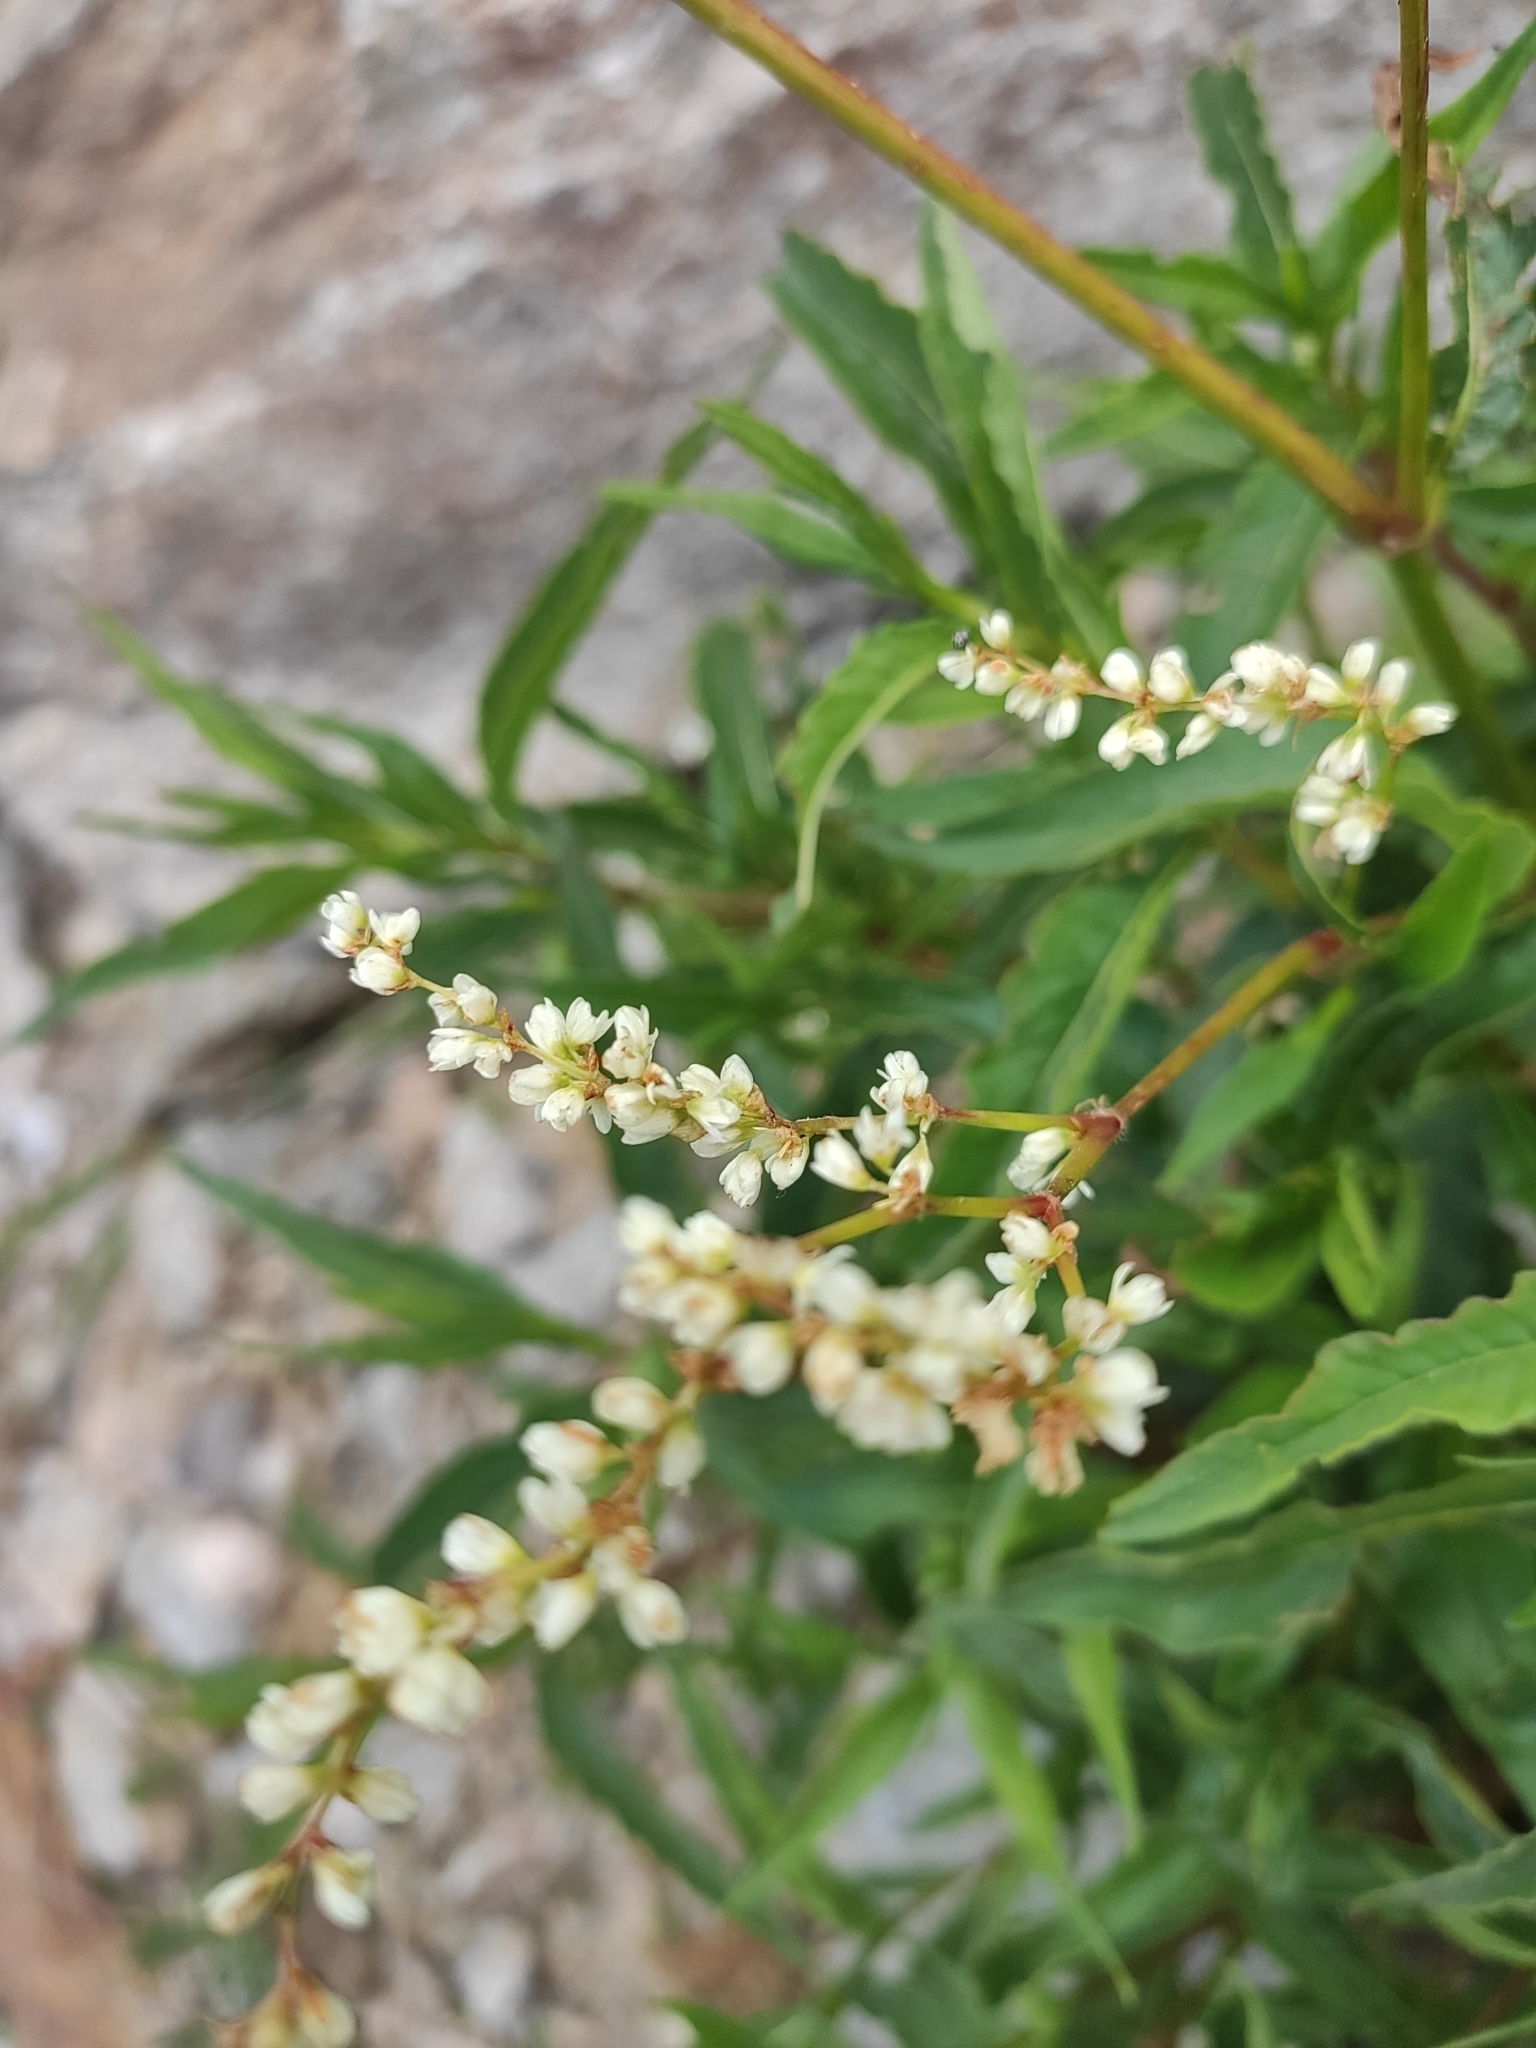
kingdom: Plantae
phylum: Tracheophyta
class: Magnoliopsida
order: Caryophyllales
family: Polygonaceae
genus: Koenigia
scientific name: Koenigia alpina
